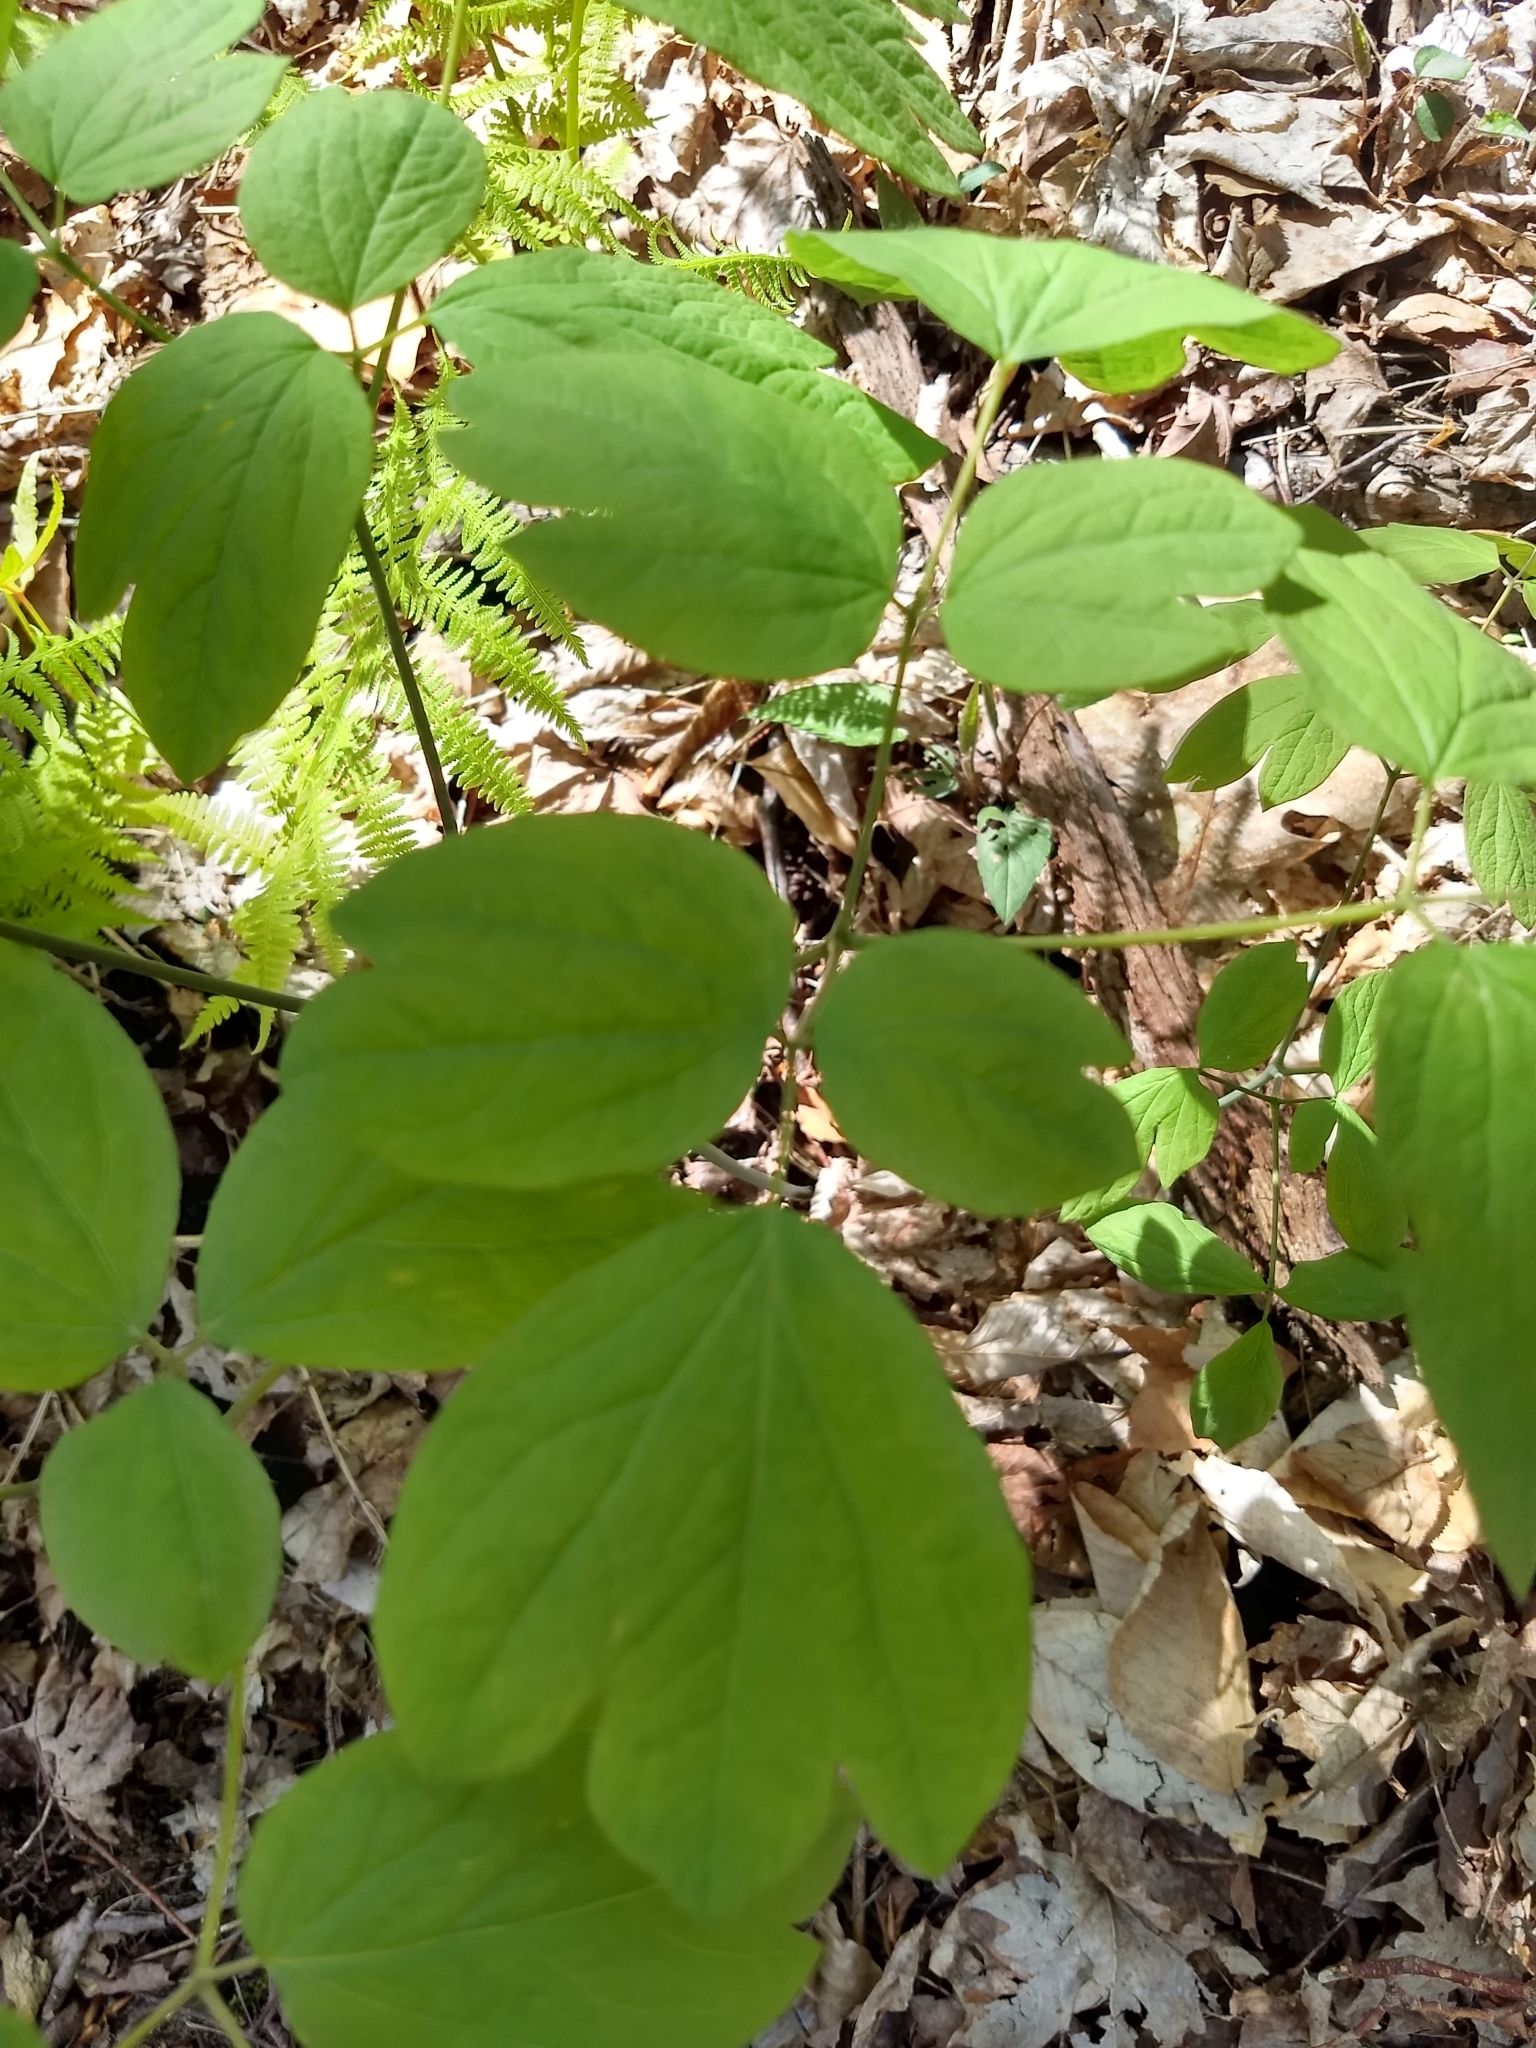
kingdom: Plantae
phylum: Tracheophyta
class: Magnoliopsida
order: Ranunculales
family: Berberidaceae
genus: Caulophyllum
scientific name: Caulophyllum thalictroides
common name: Blue cohosh
